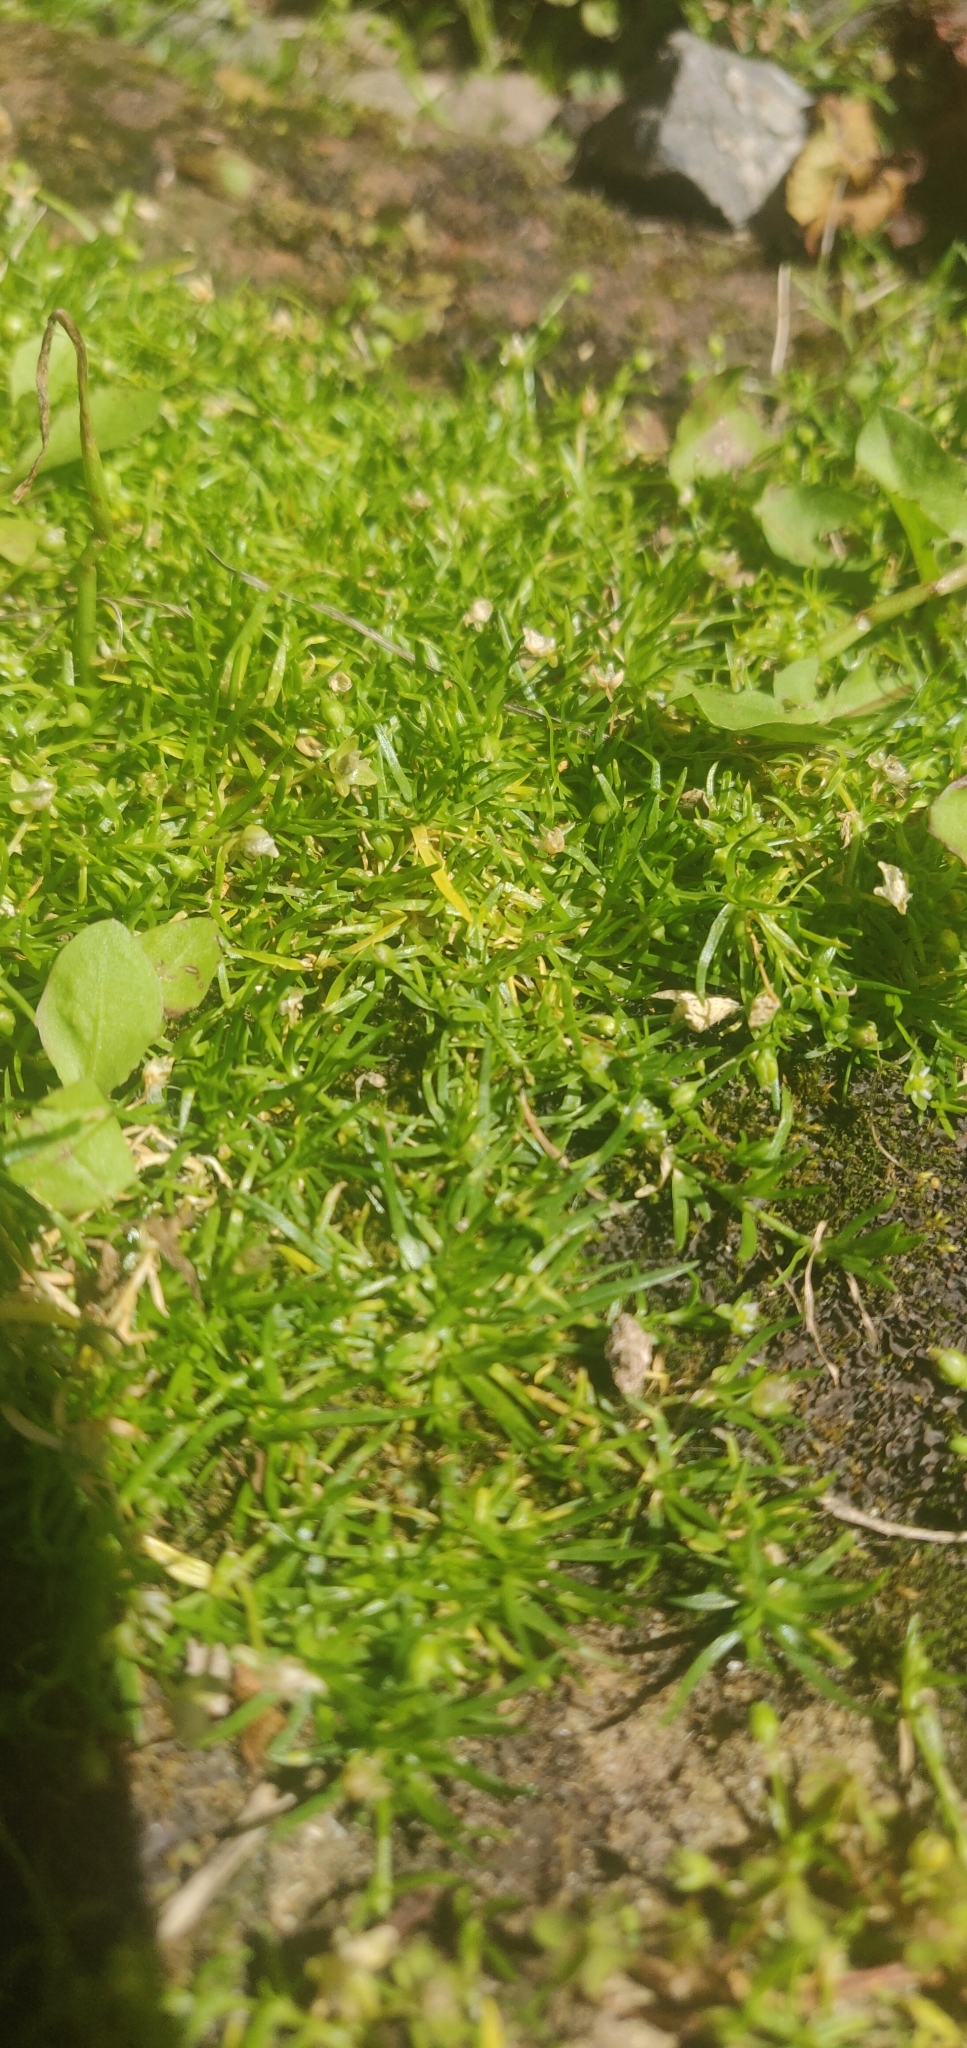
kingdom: Plantae
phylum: Tracheophyta
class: Magnoliopsida
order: Caryophyllales
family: Caryophyllaceae
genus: Sagina
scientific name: Sagina procumbens
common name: Procumbent pearlwort
